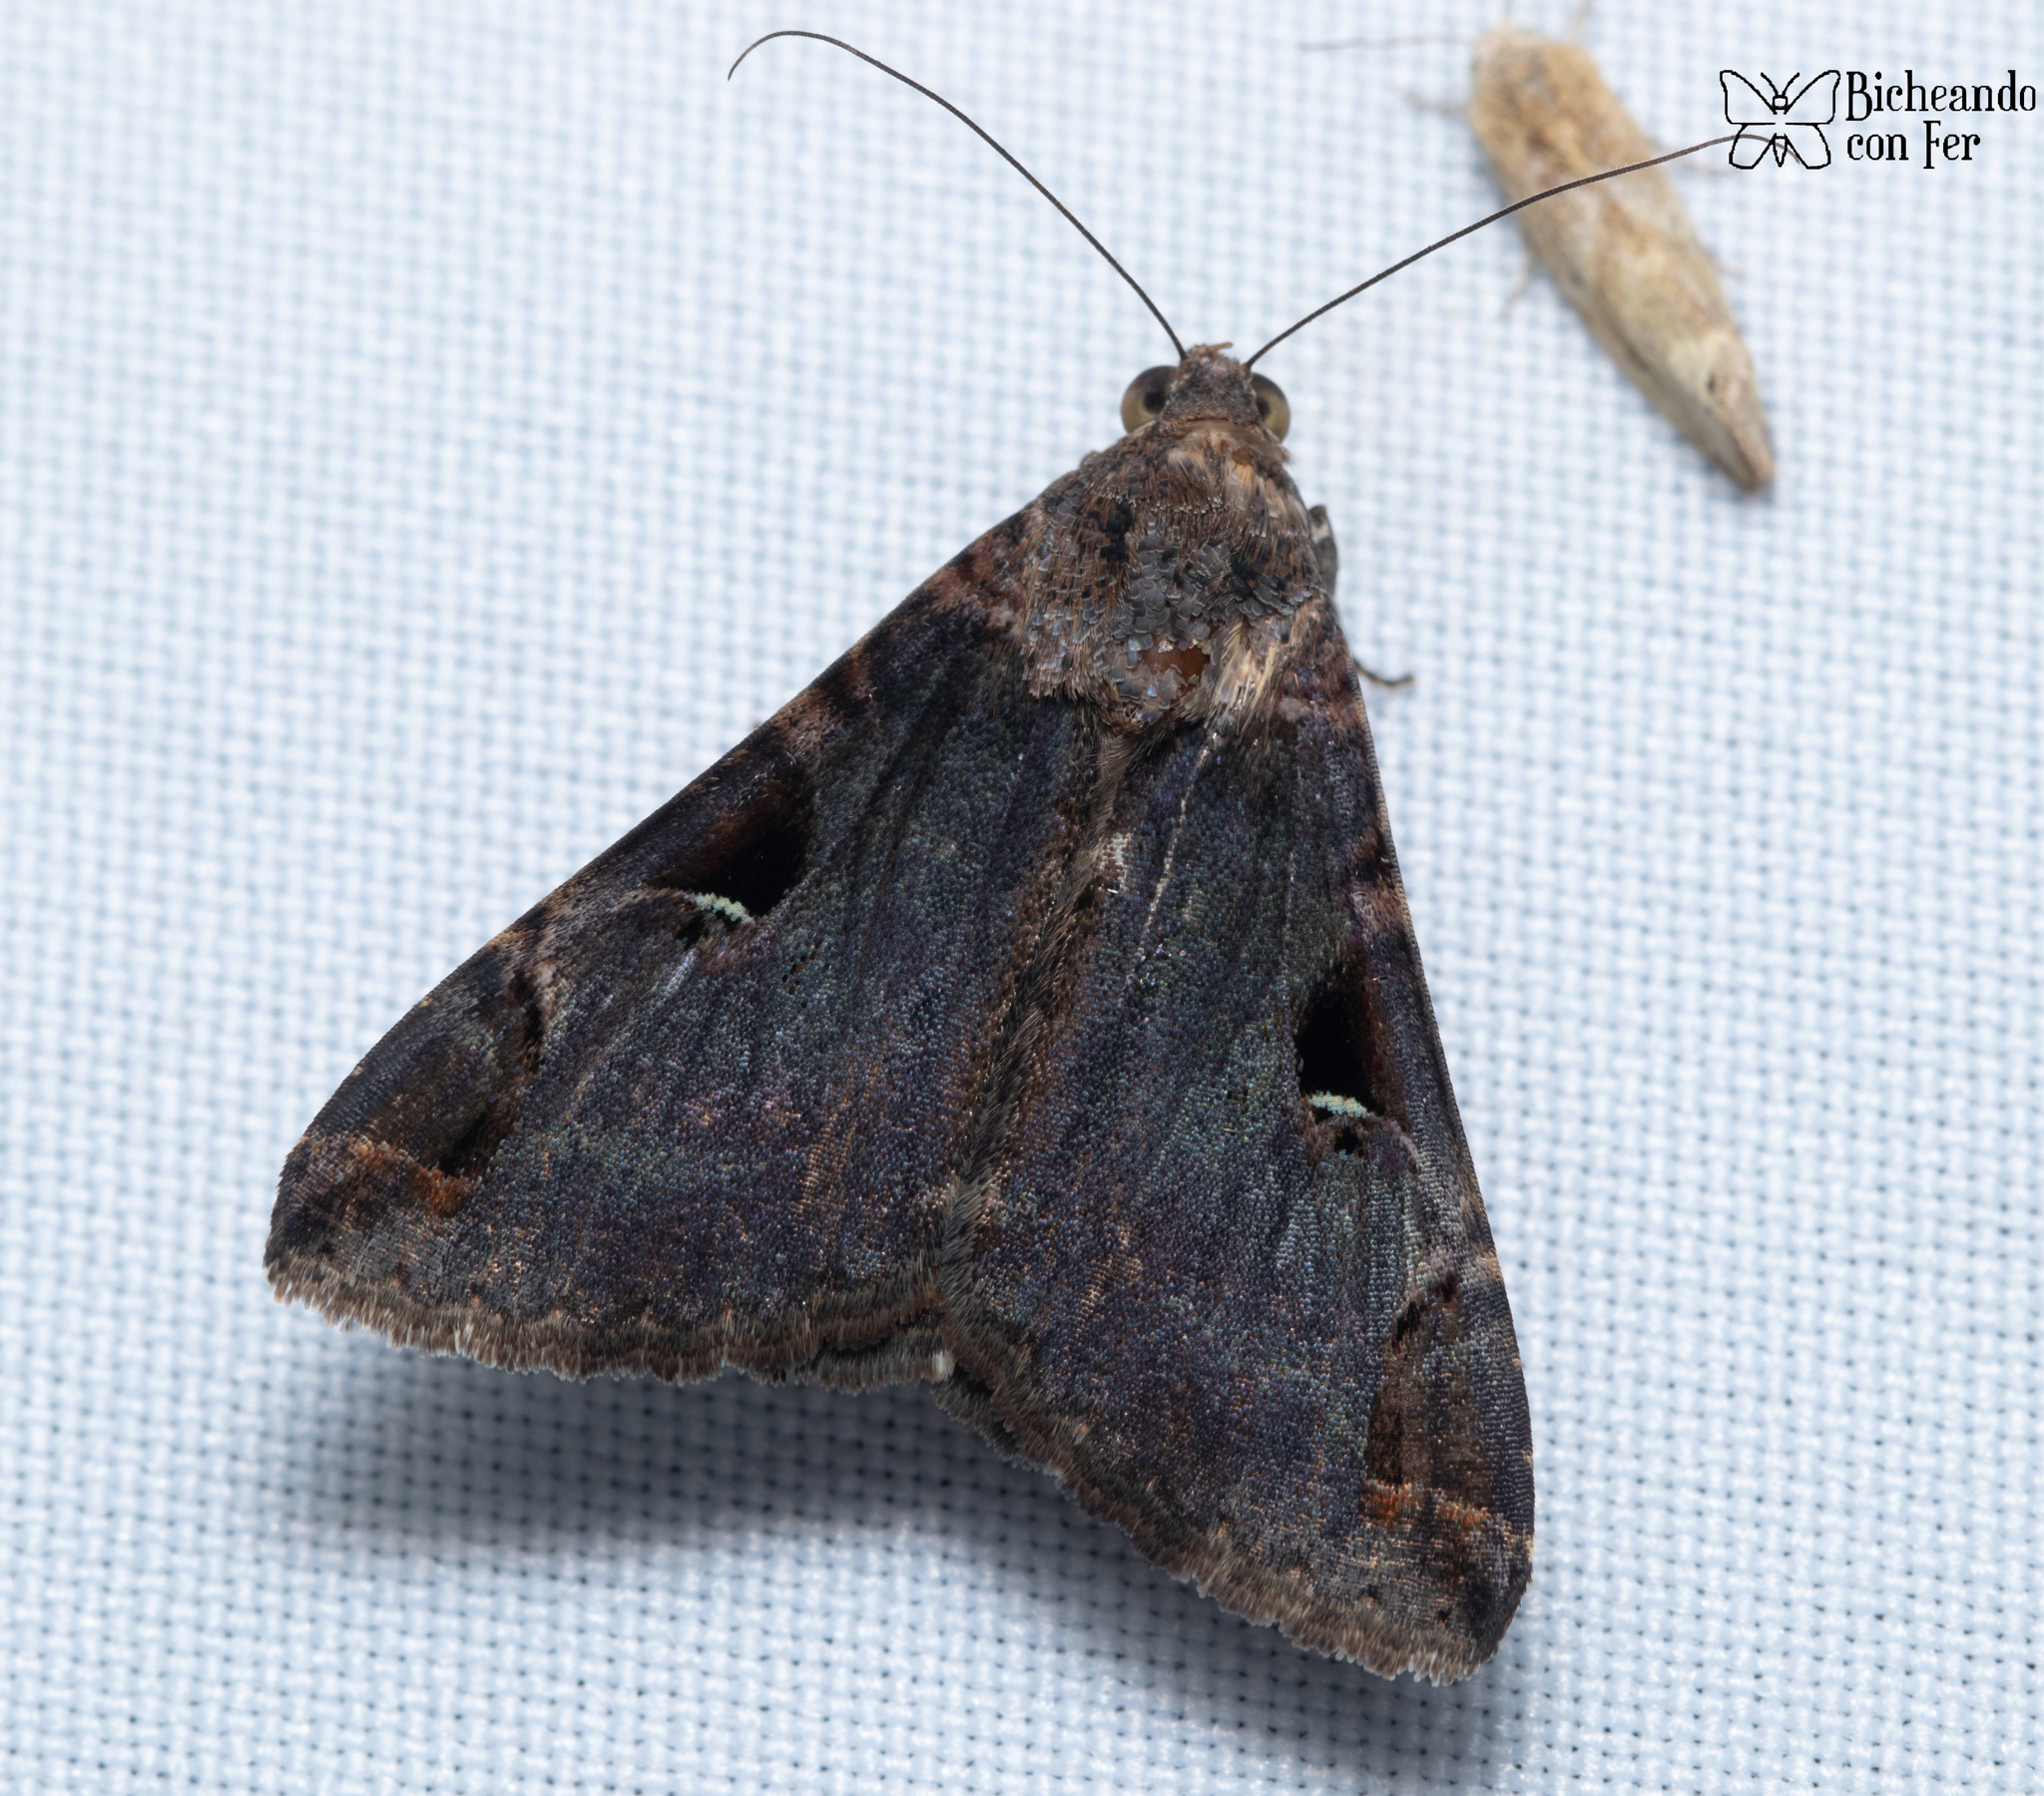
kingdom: Animalia
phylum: Arthropoda
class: Insecta
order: Lepidoptera
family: Erebidae
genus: Melipotis
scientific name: Melipotis perpendicularis
